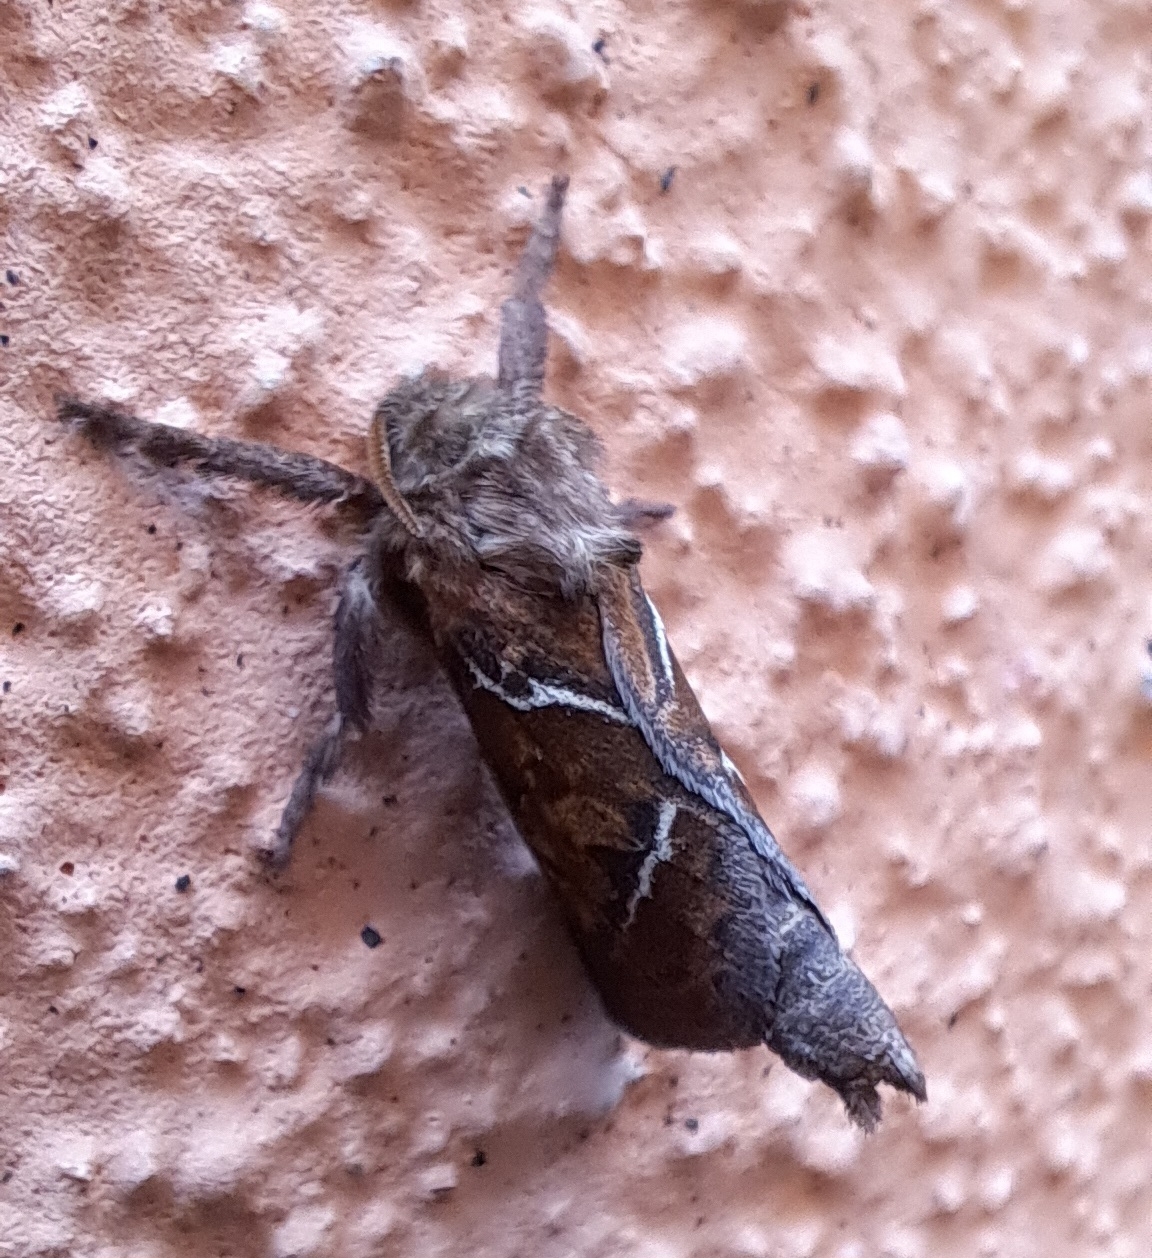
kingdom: Animalia
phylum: Arthropoda
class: Insecta
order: Lepidoptera
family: Hepialidae
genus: Triodia
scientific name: Triodia sylvina
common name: Orange swift
